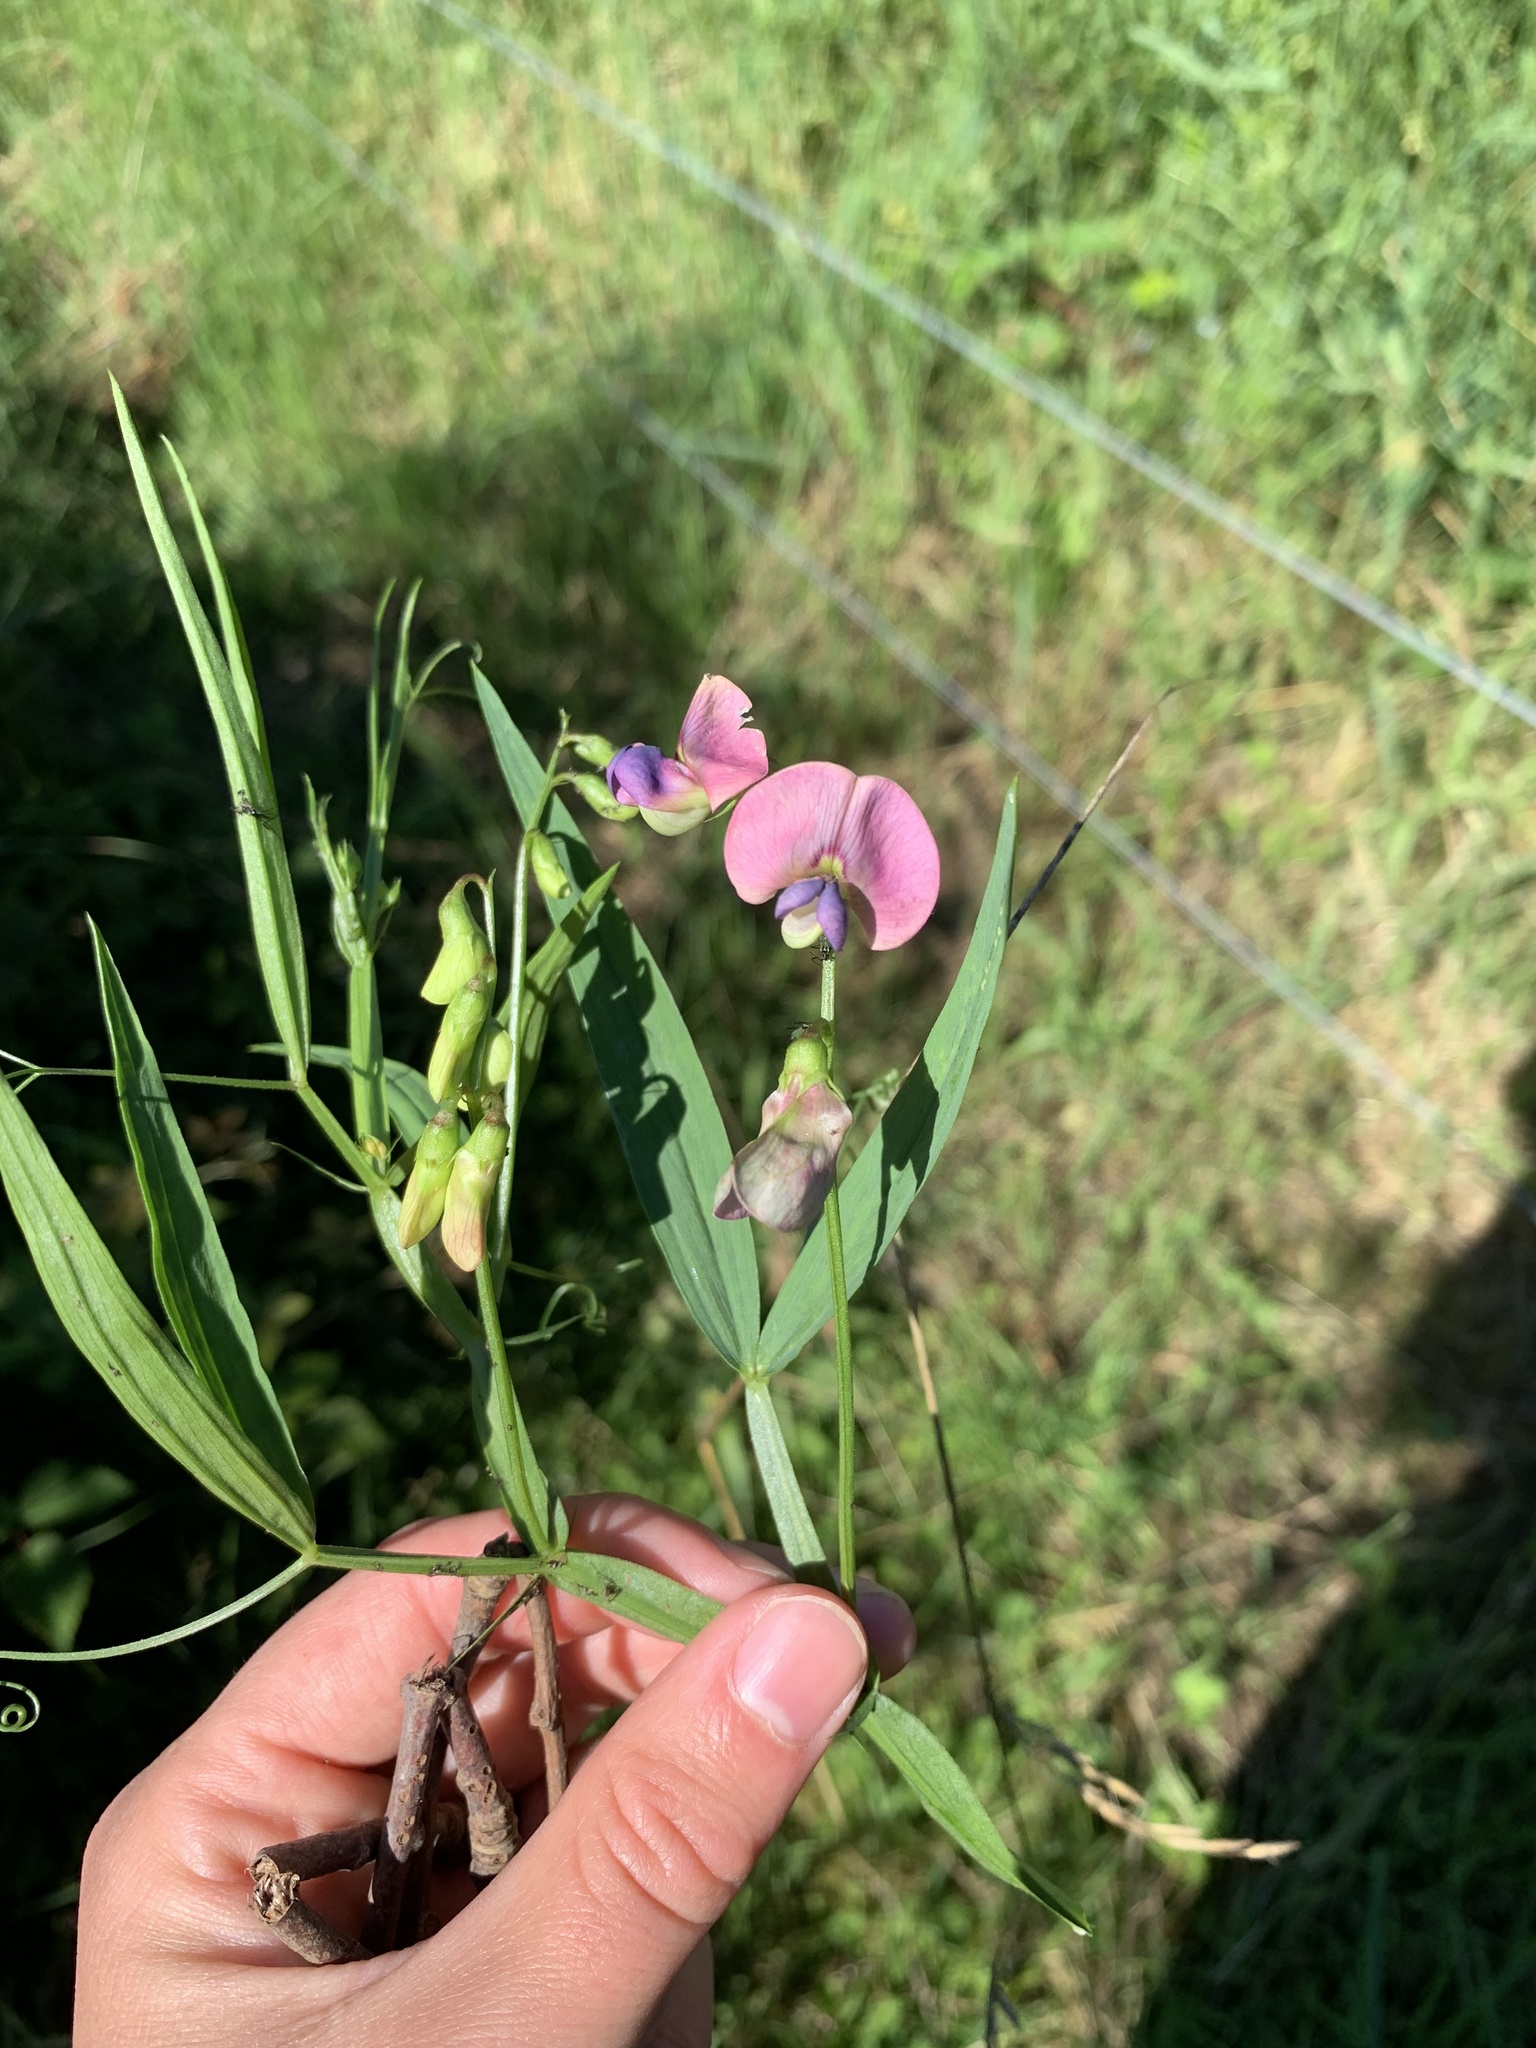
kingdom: Plantae
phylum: Tracheophyta
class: Magnoliopsida
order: Fabales
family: Fabaceae
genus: Lathyrus
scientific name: Lathyrus sylvestris
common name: Flat pea
